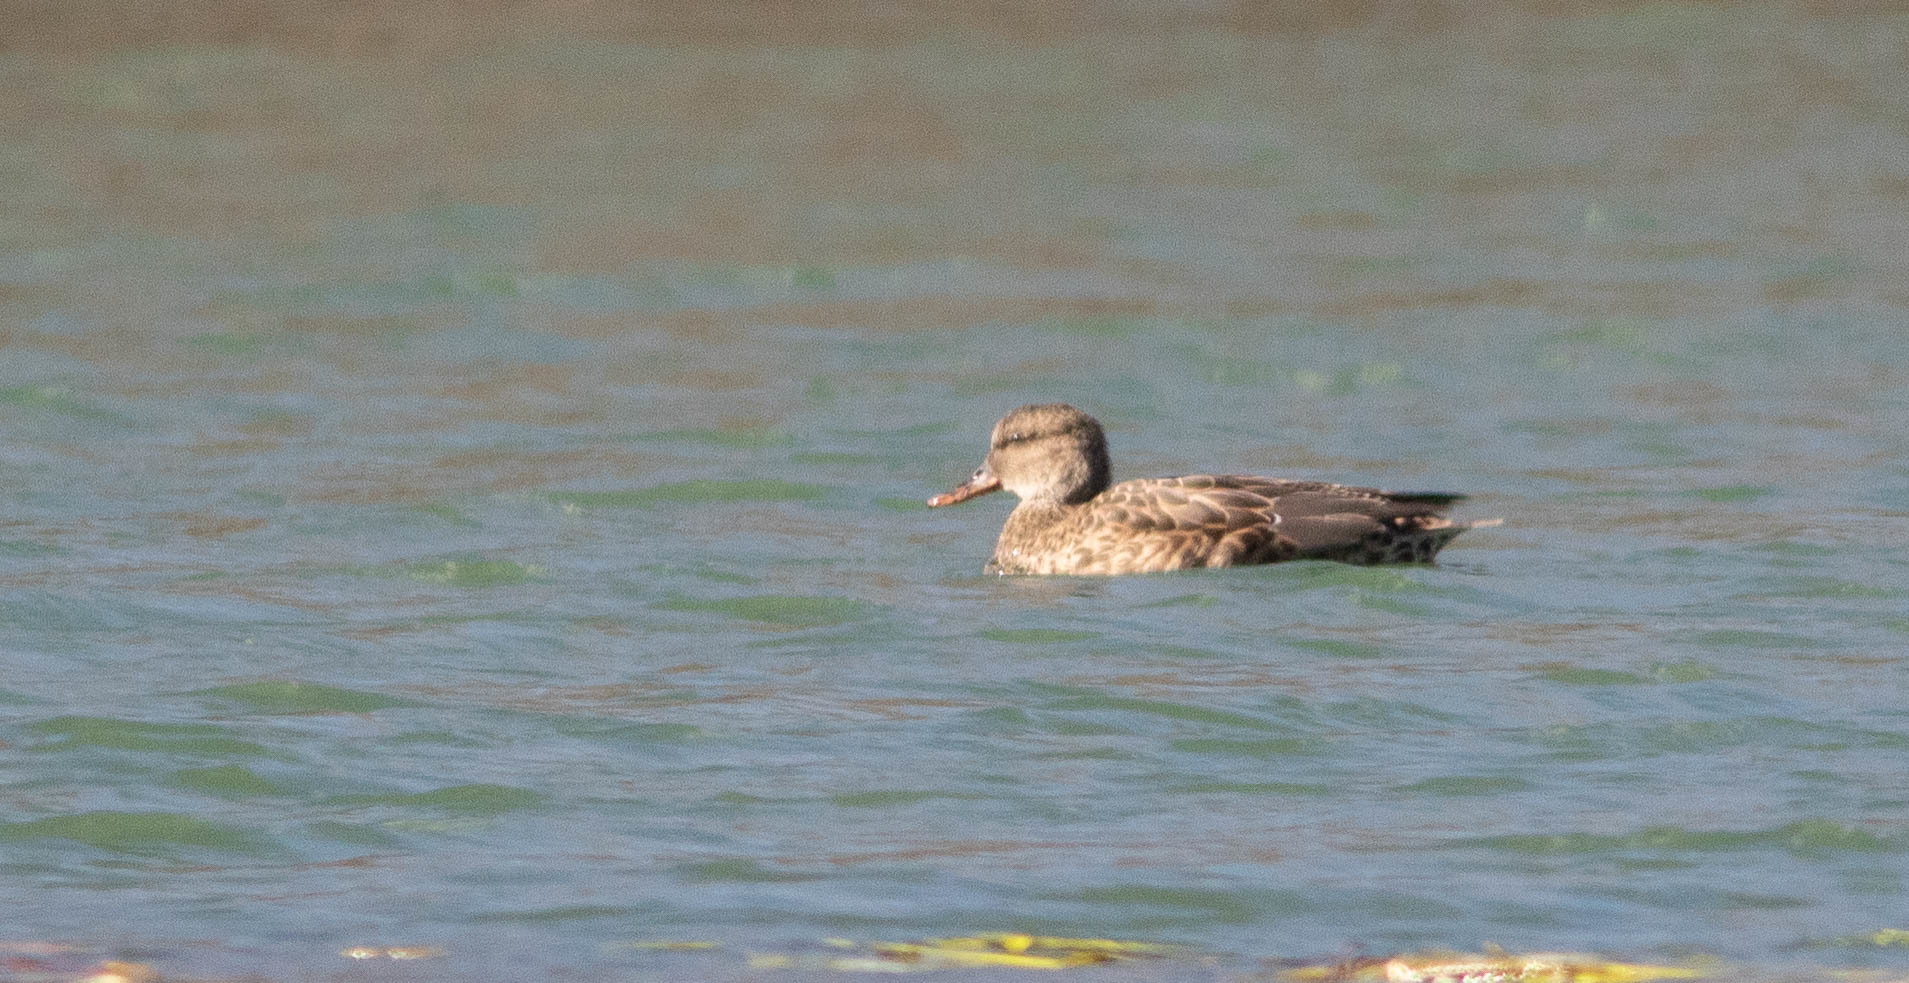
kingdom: Animalia
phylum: Chordata
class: Aves
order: Anseriformes
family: Anatidae
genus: Mareca
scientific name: Mareca strepera
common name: Gadwall
